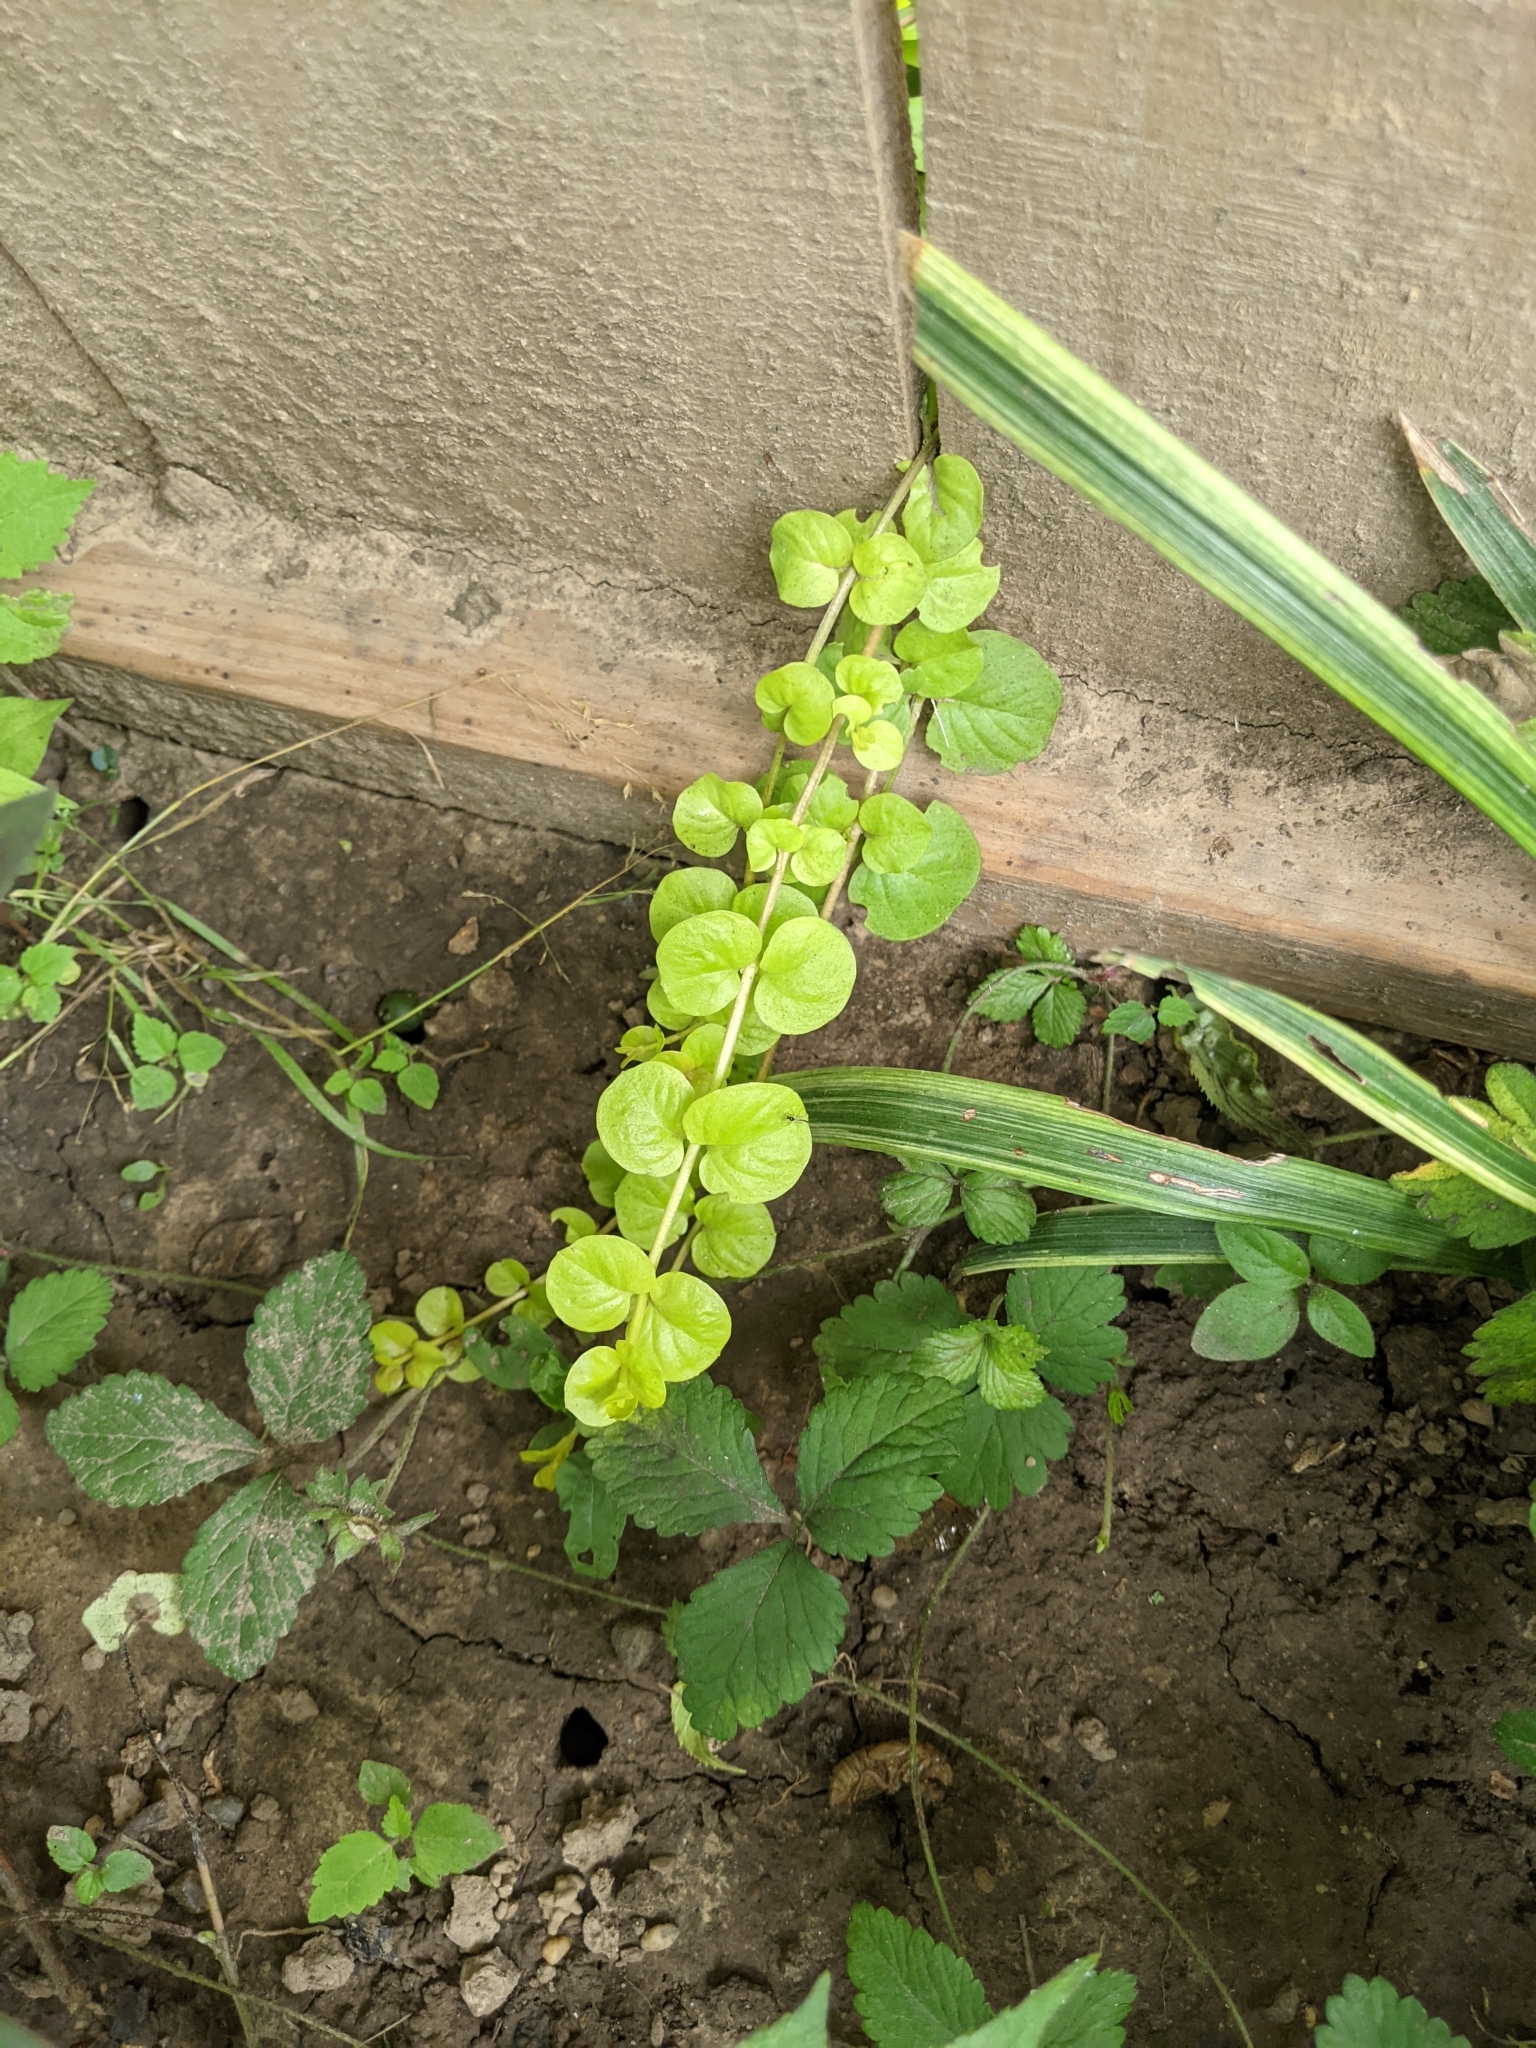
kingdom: Plantae
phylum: Tracheophyta
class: Magnoliopsida
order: Ericales
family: Primulaceae
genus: Lysimachia
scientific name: Lysimachia nummularia
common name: Moneywort
